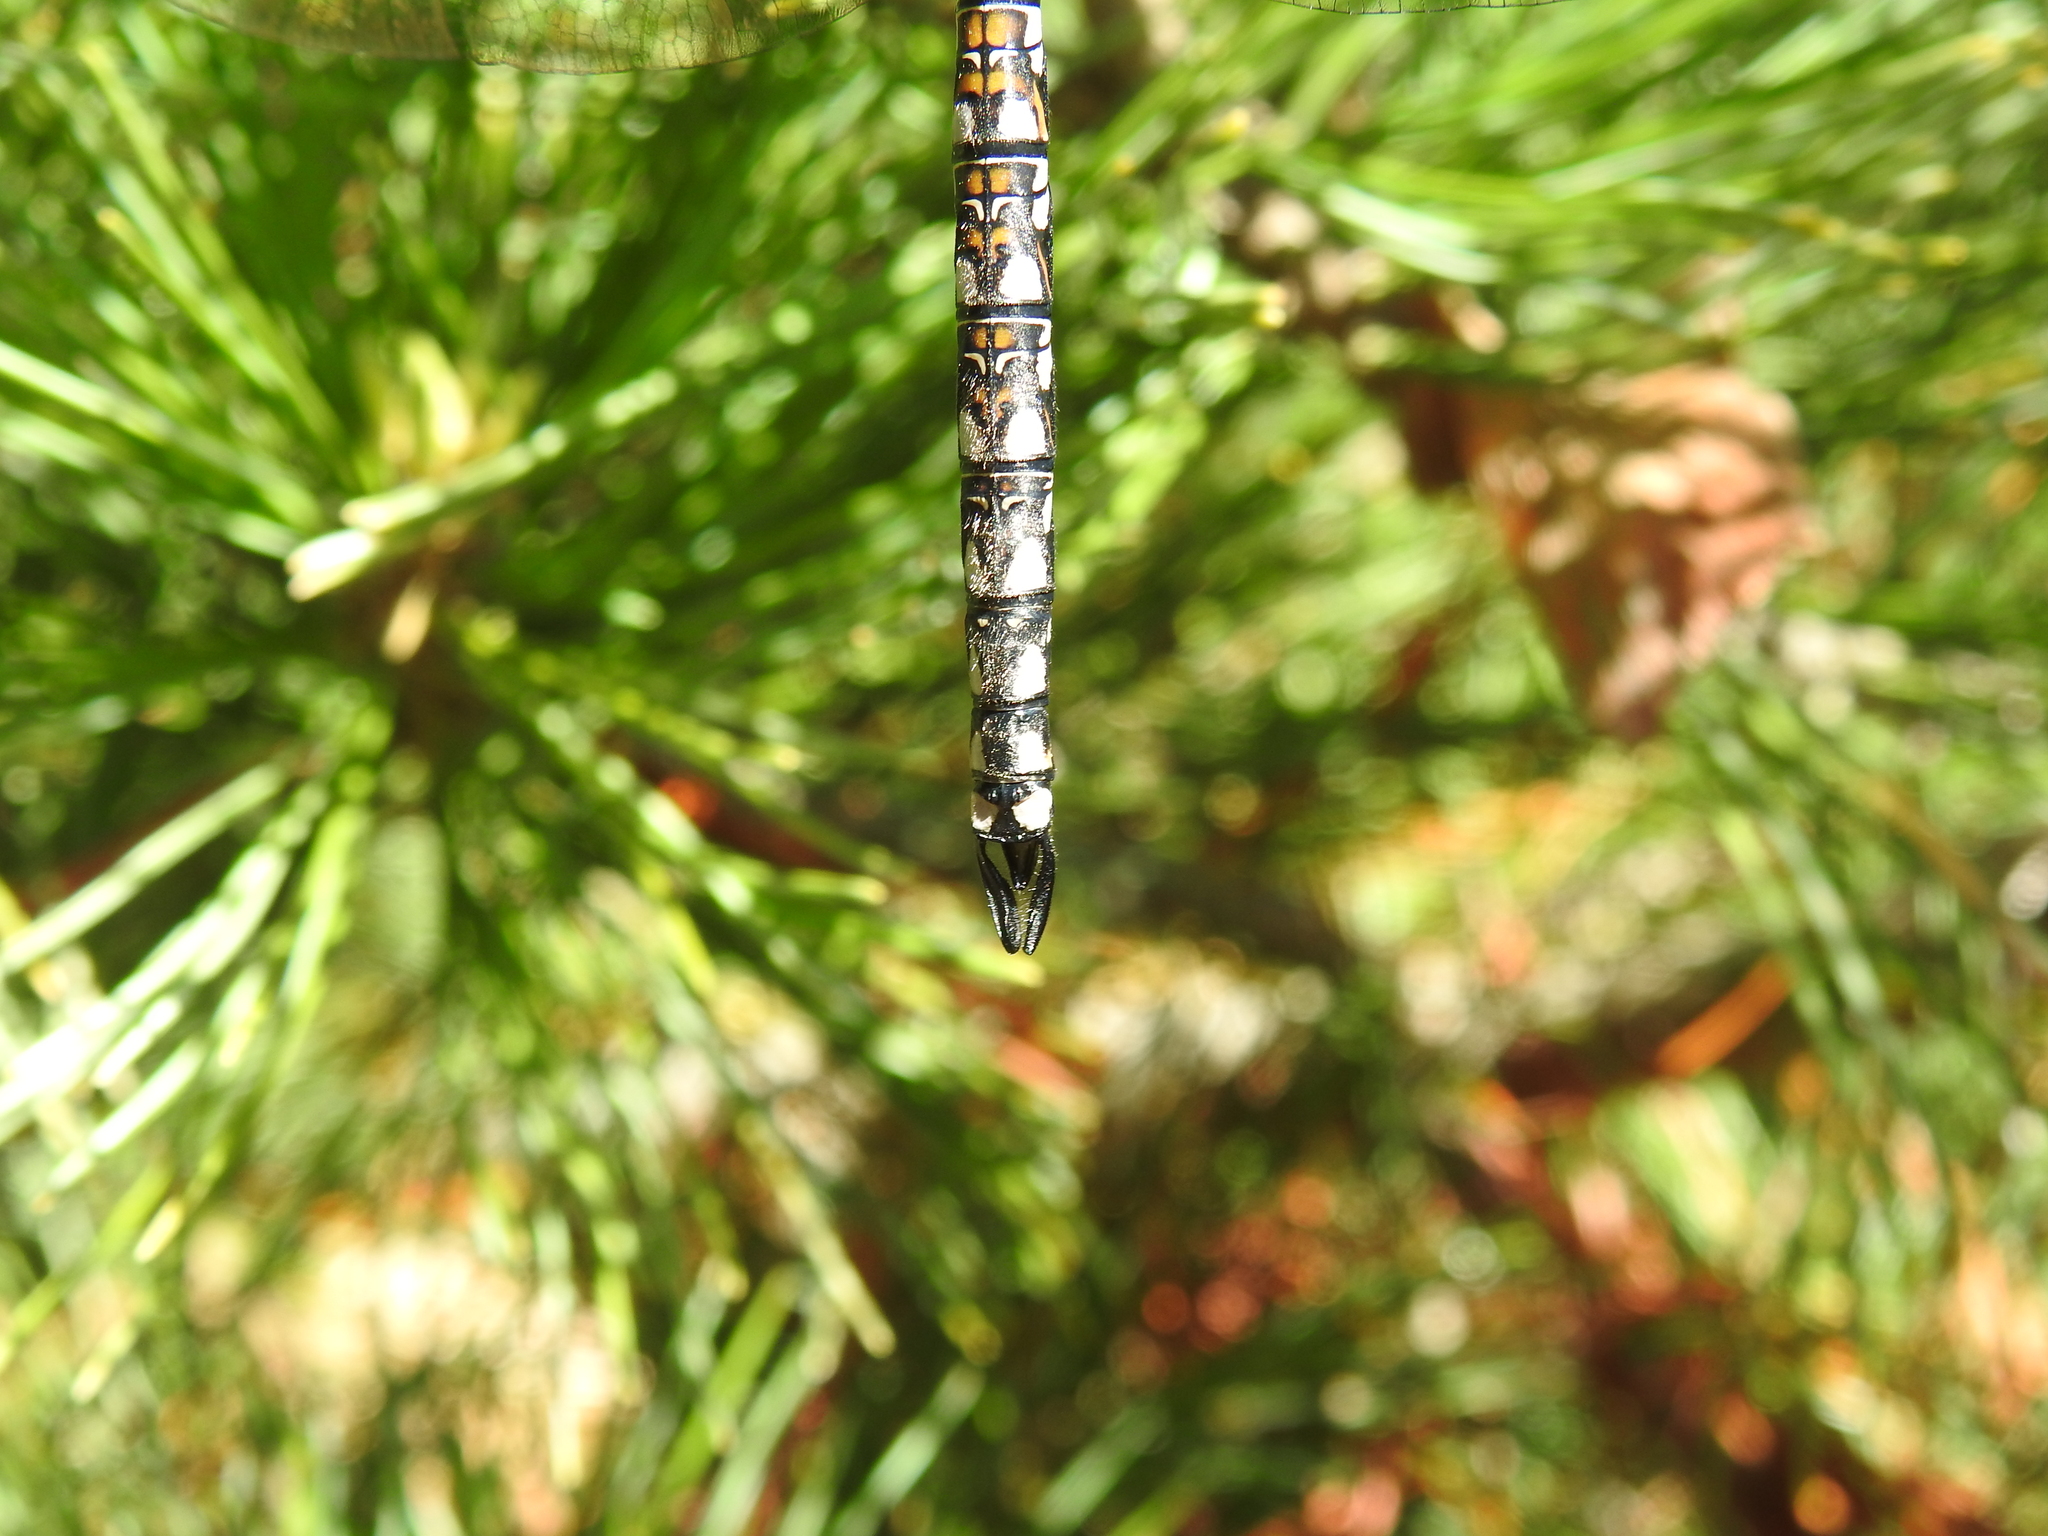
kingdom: Animalia
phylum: Arthropoda
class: Insecta
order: Odonata
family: Aeshnidae
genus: Rhionaeschna
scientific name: Rhionaeschna californica
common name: California darner
